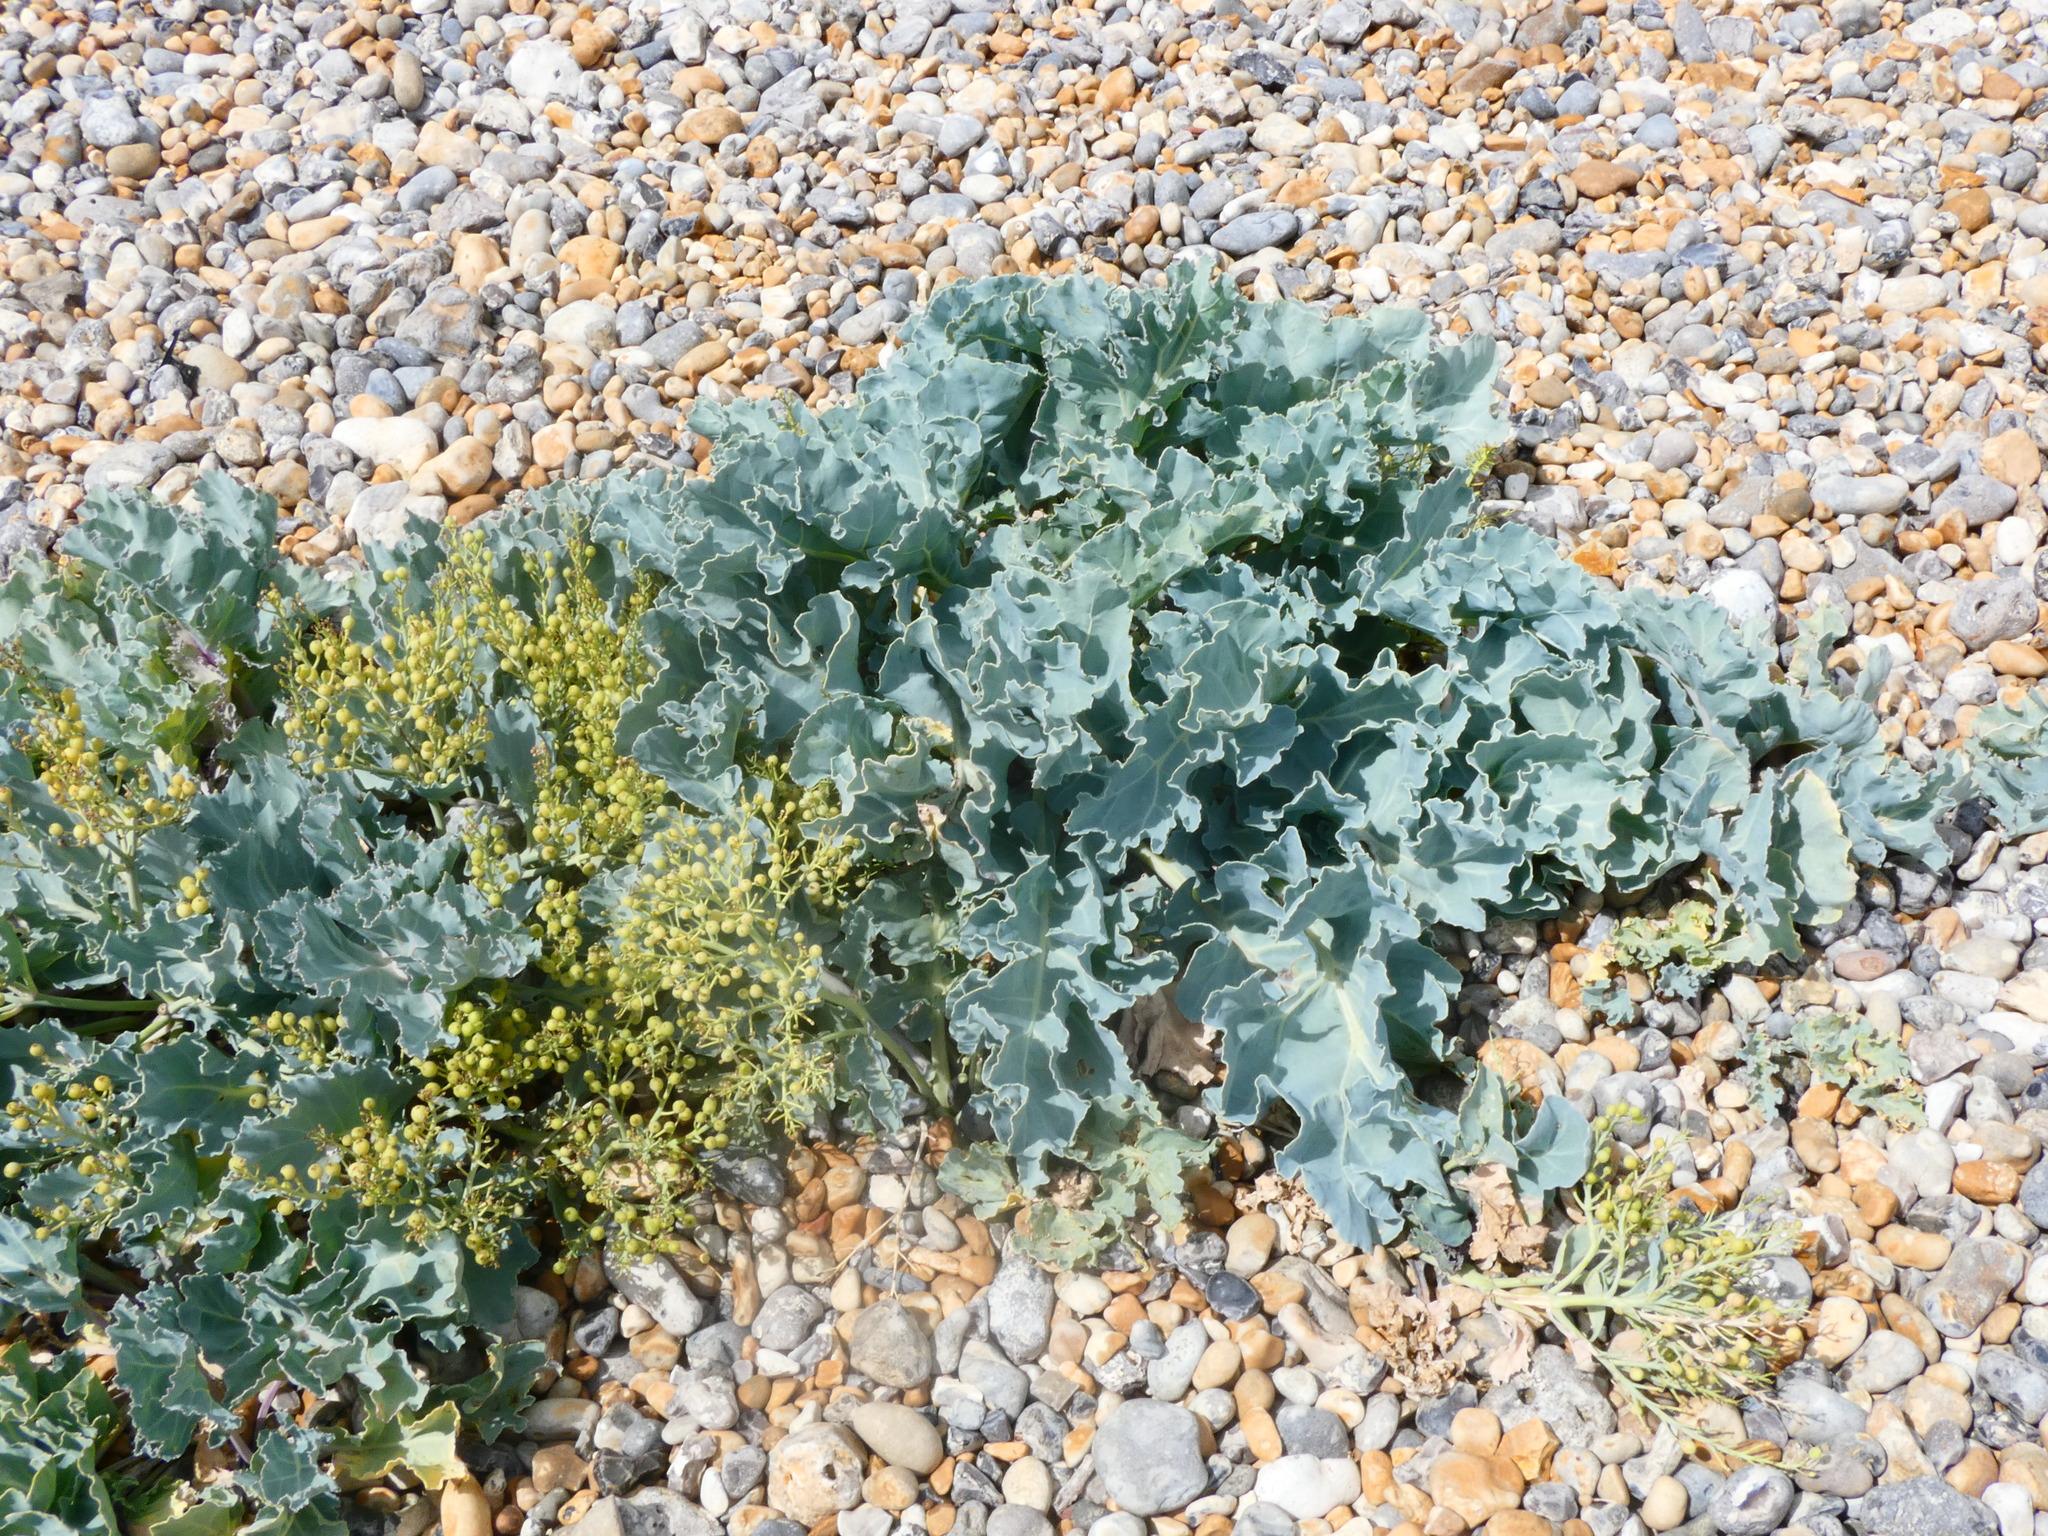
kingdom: Plantae
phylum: Tracheophyta
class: Magnoliopsida
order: Brassicales
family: Brassicaceae
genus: Crambe
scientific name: Crambe maritima
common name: Sea-kale
